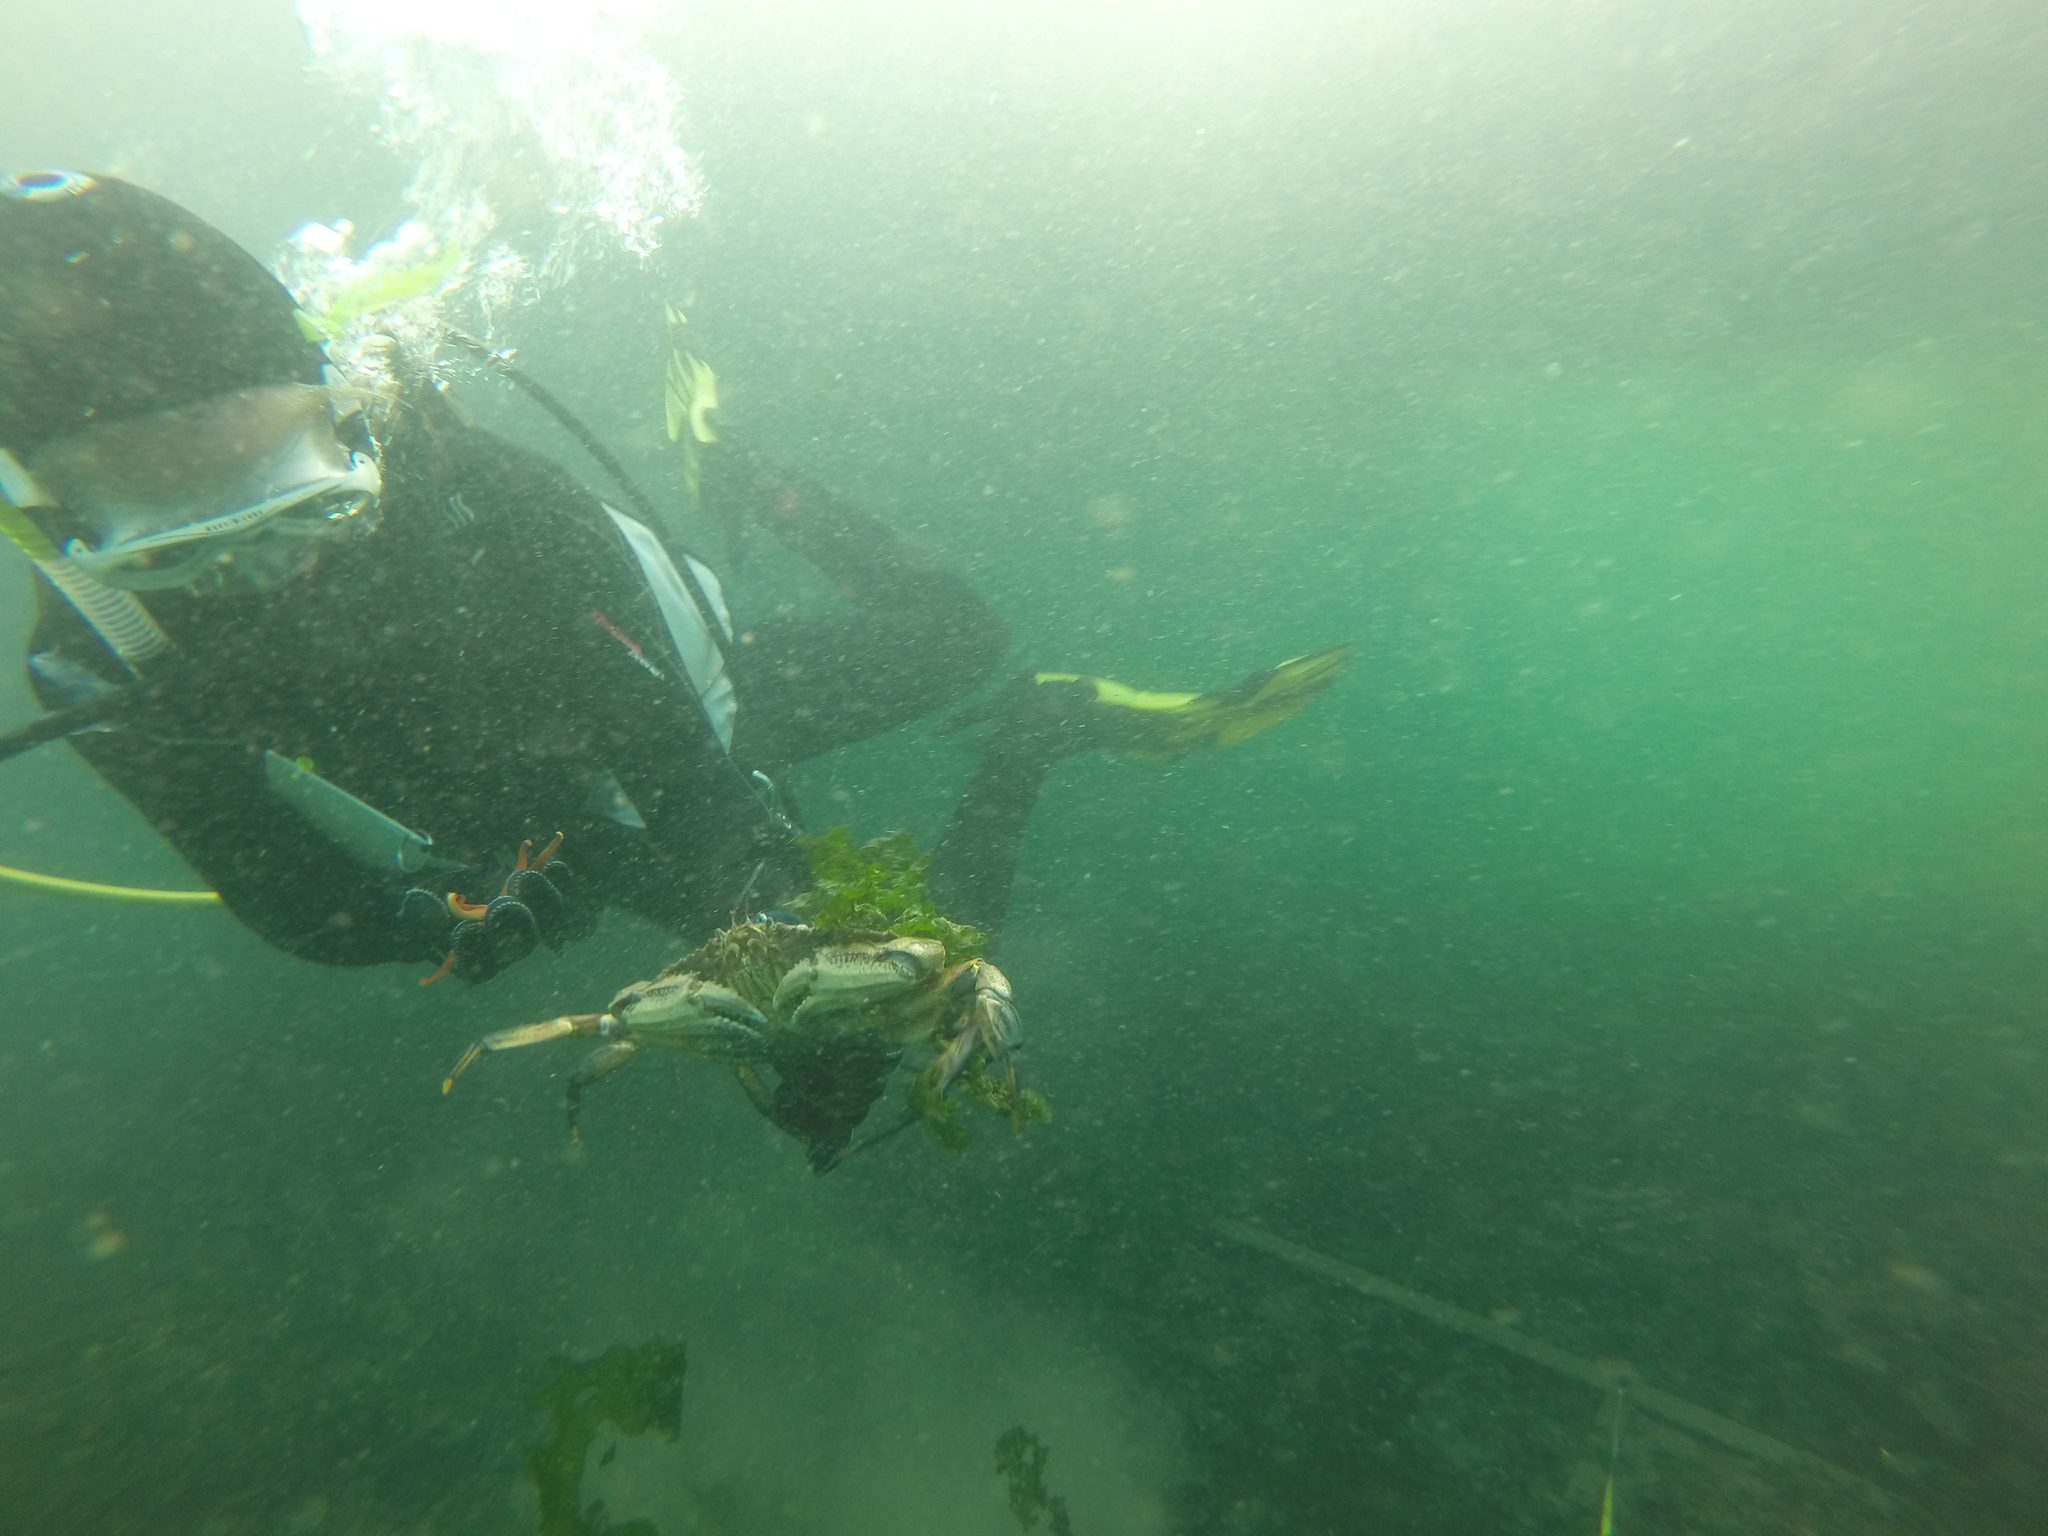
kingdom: Animalia
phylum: Arthropoda
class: Malacostraca
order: Decapoda
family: Cancridae
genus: Metacarcinus
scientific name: Metacarcinus magister
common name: Californian crab
